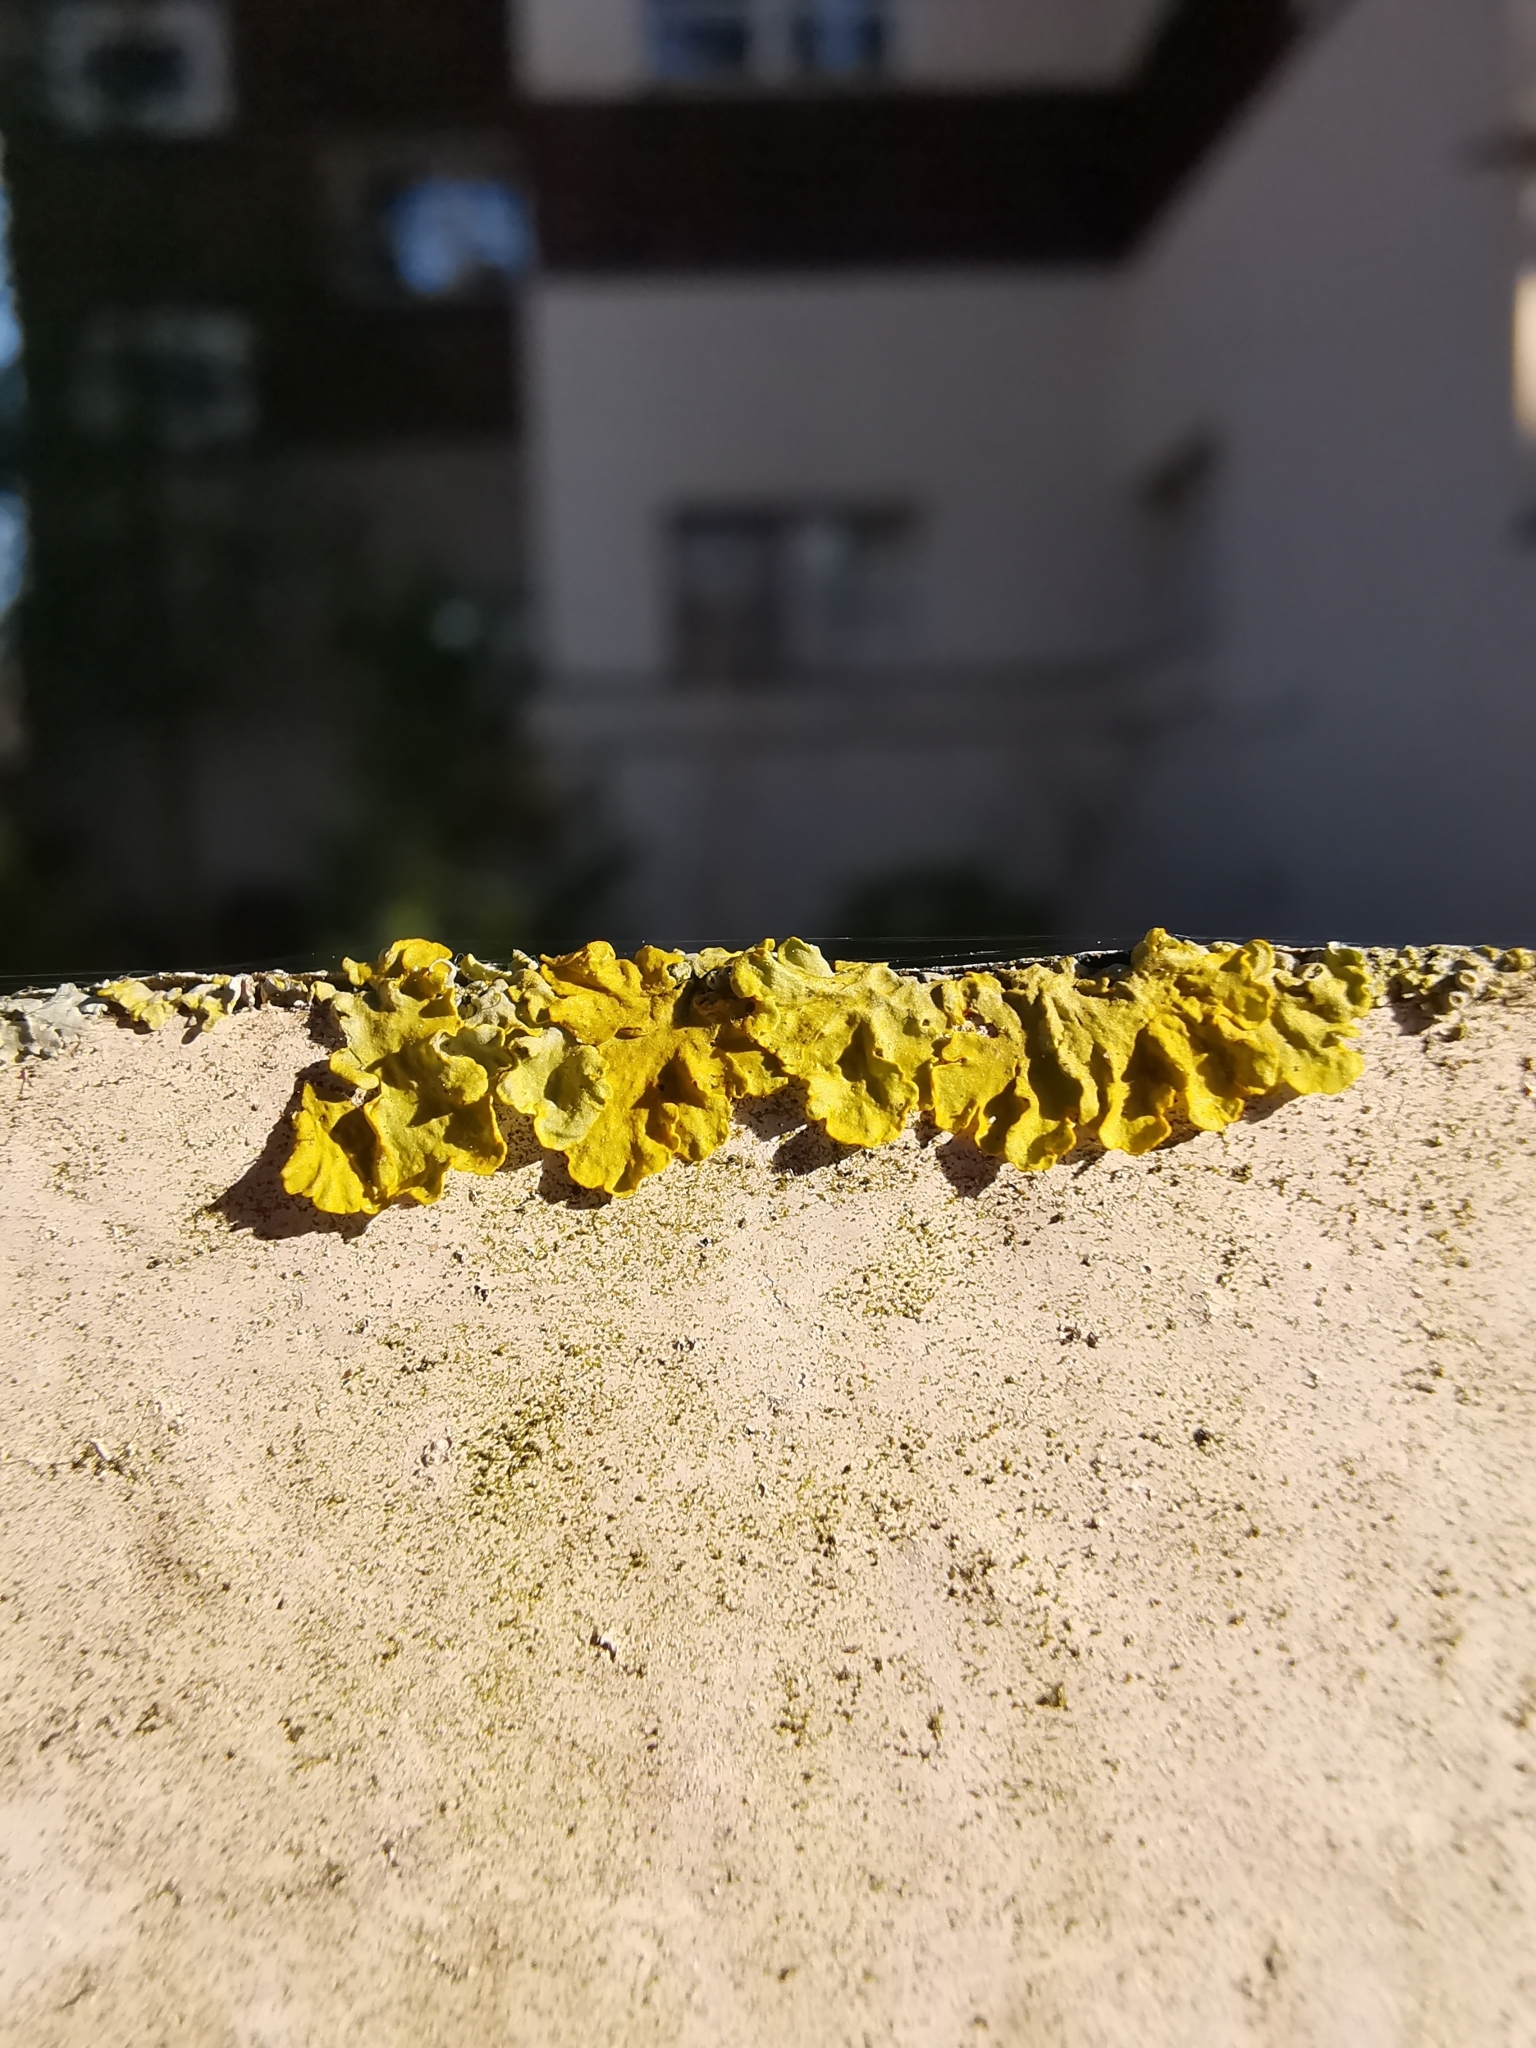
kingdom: Fungi
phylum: Ascomycota
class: Lecanoromycetes
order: Teloschistales
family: Teloschistaceae
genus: Xanthoria
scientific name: Xanthoria parietina
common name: Common orange lichen
